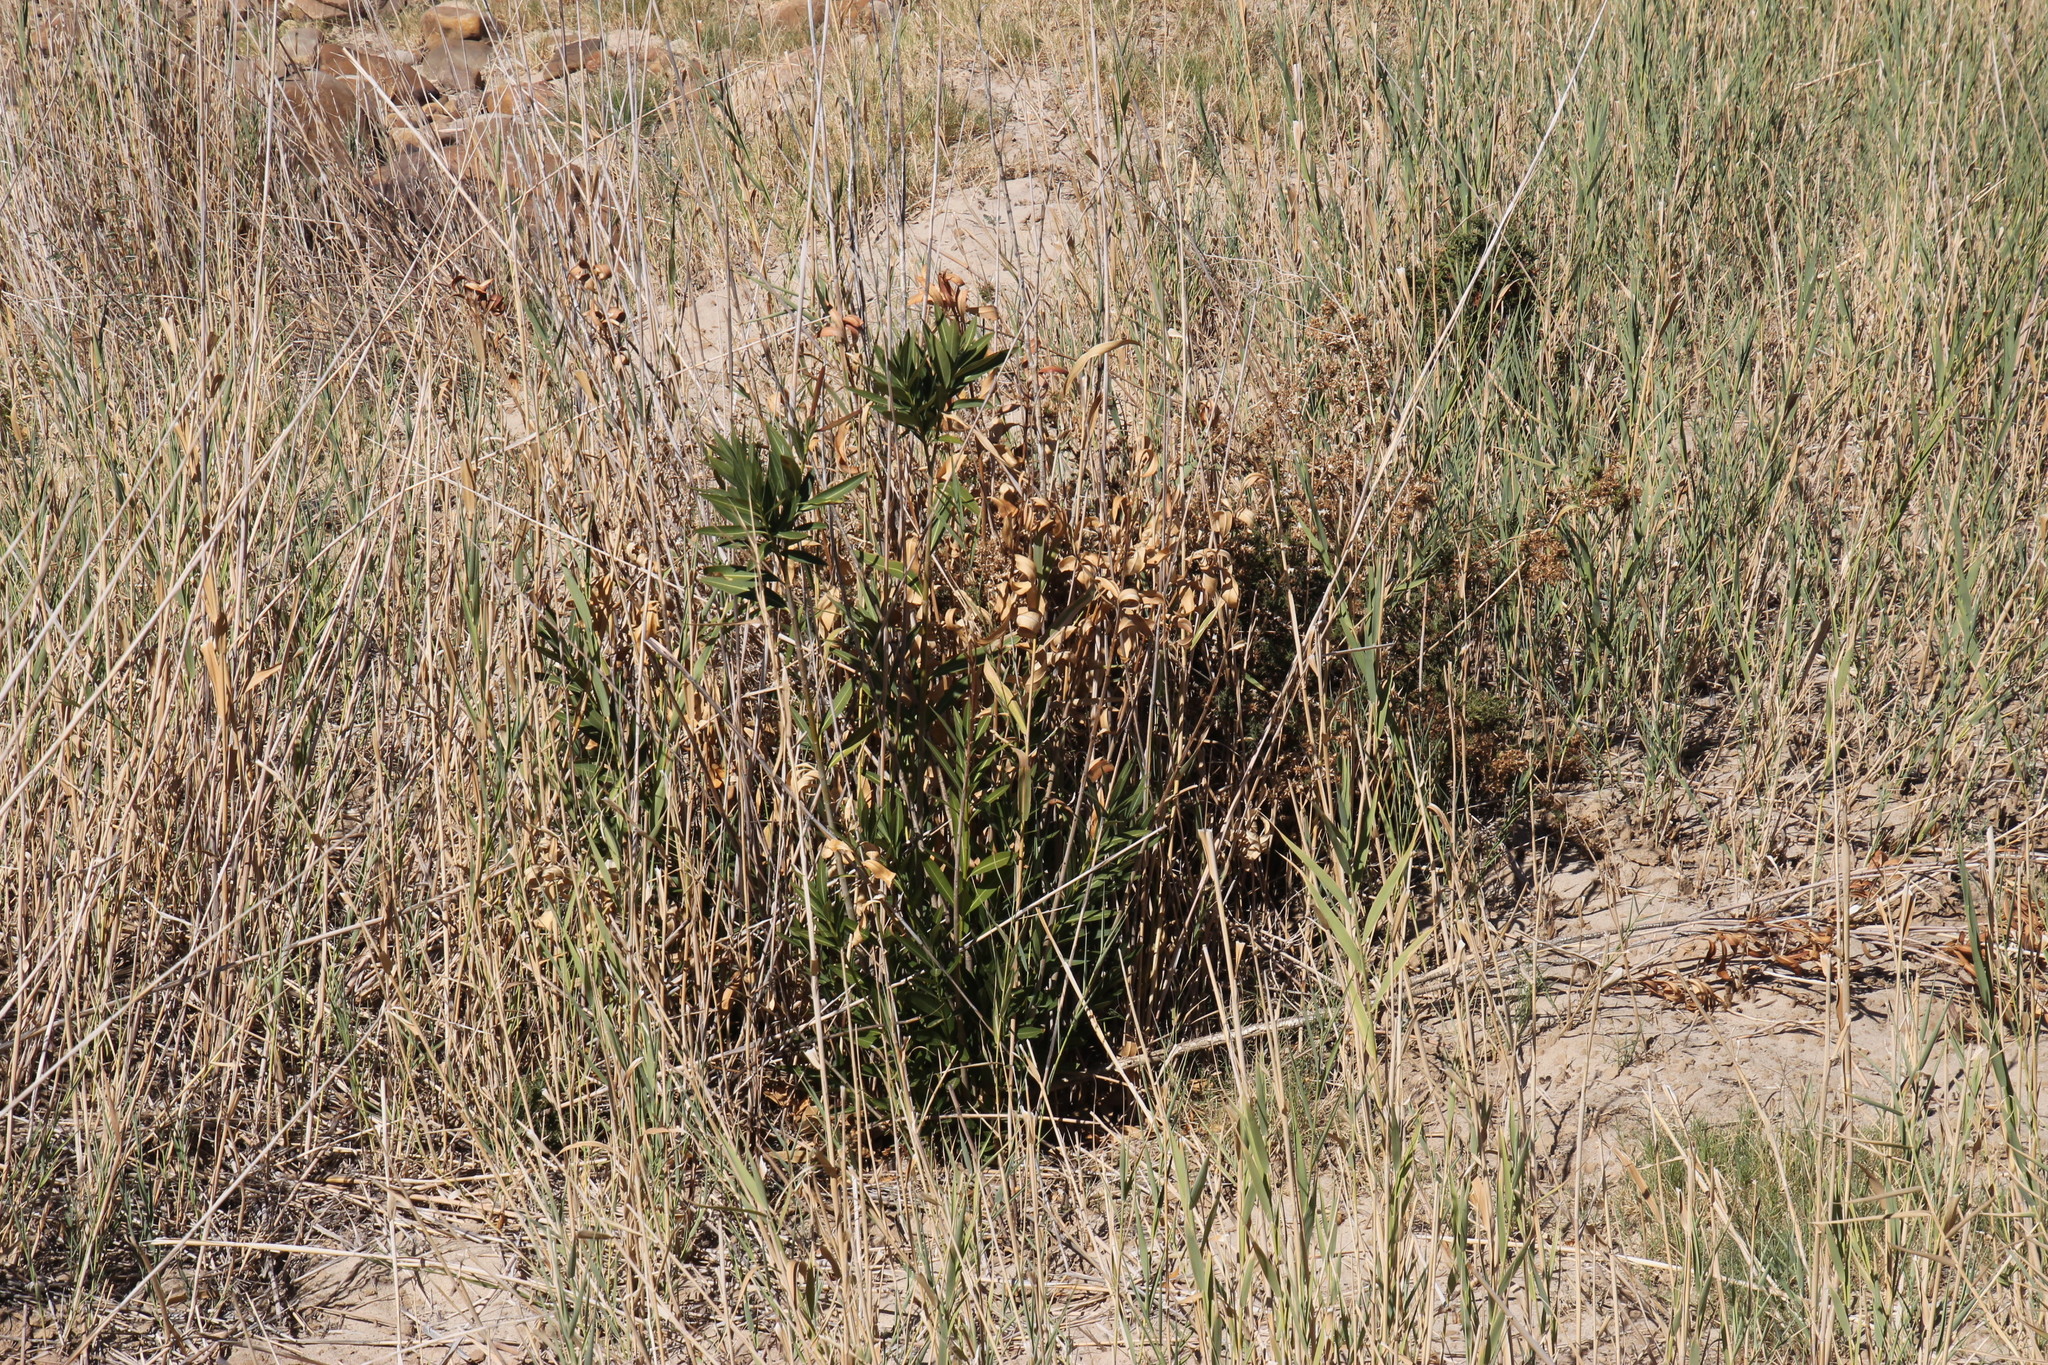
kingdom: Plantae
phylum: Tracheophyta
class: Magnoliopsida
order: Gentianales
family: Apocynaceae
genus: Nerium
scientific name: Nerium oleander
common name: Oleander
